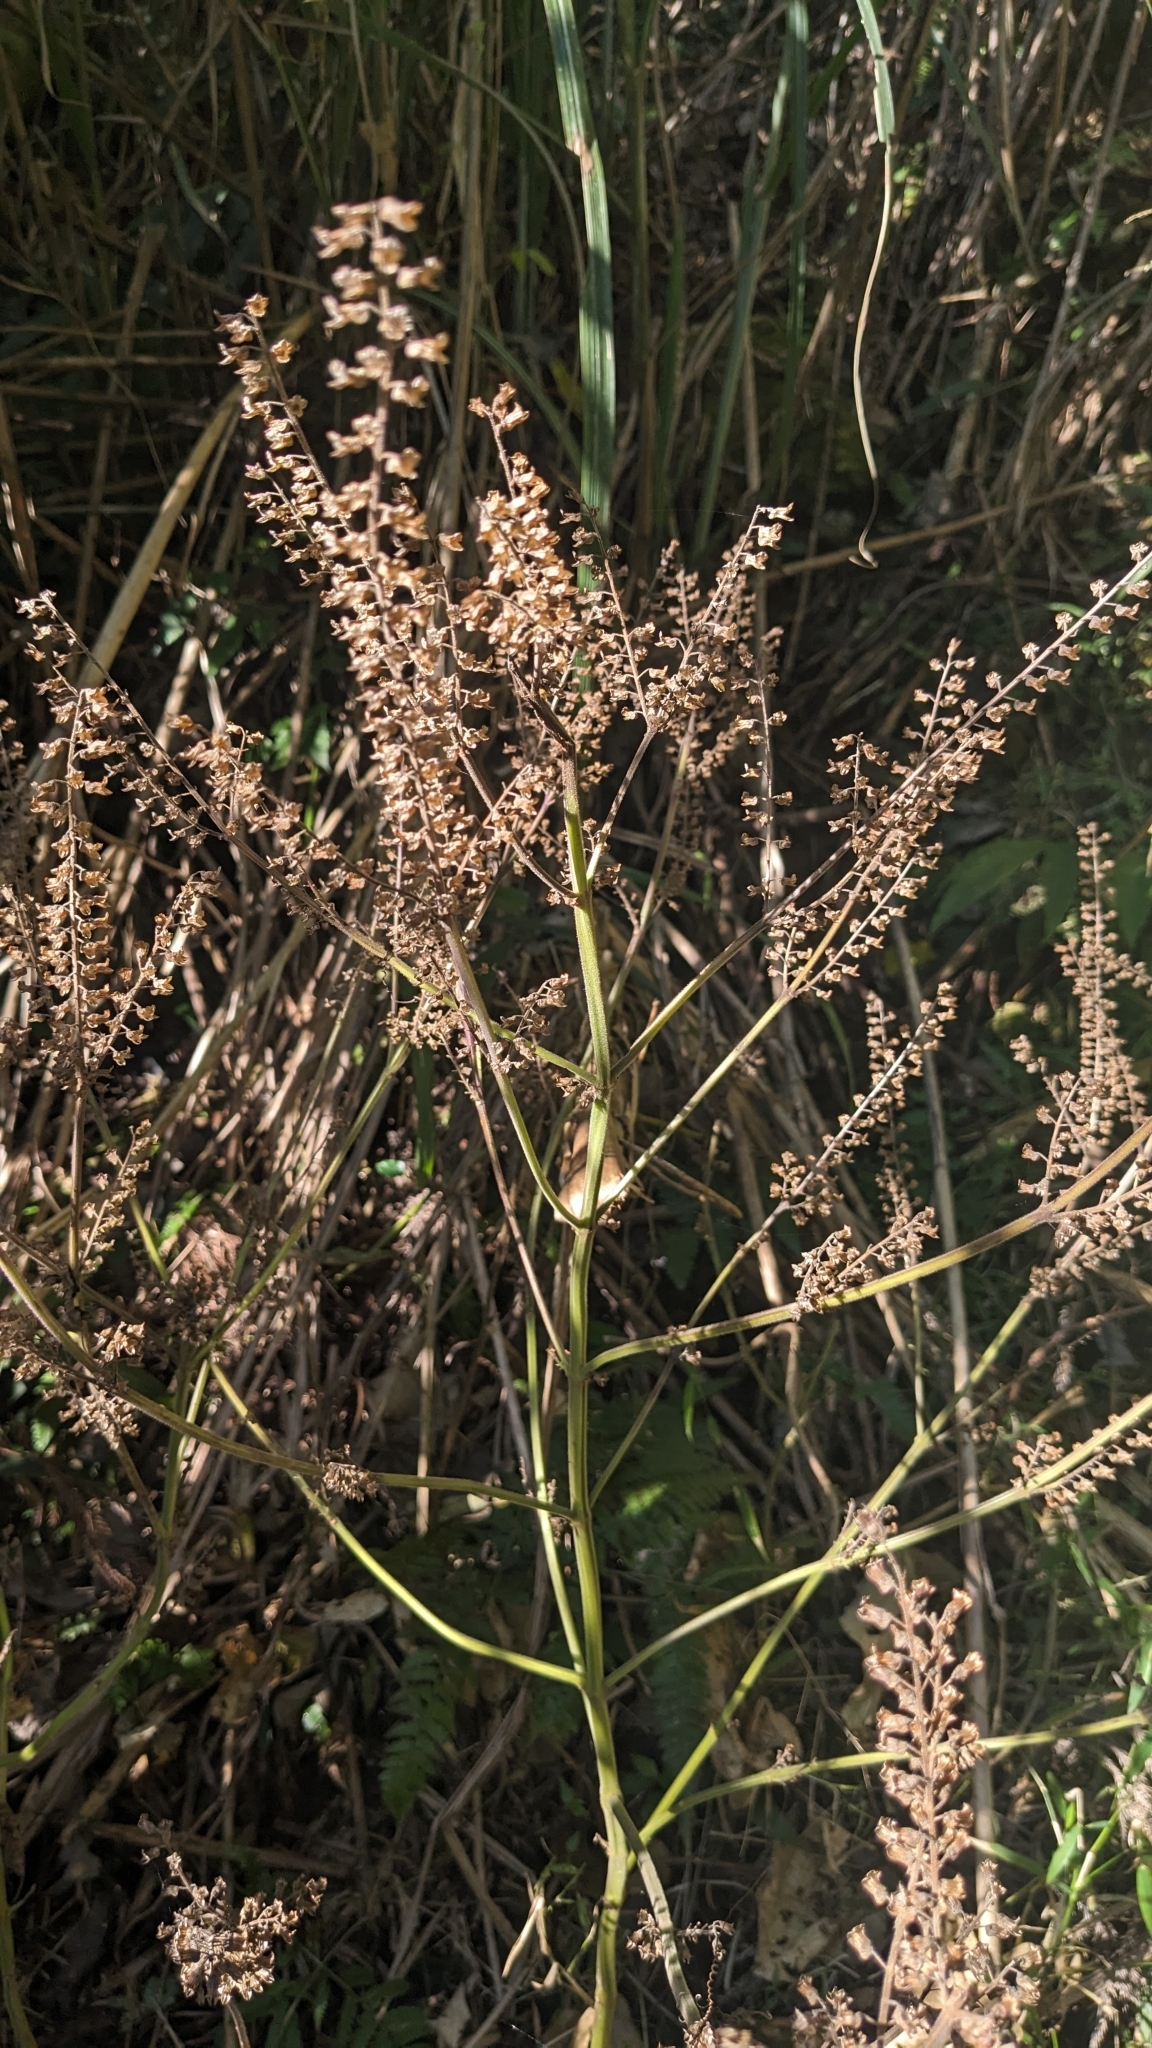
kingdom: Plantae
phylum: Tracheophyta
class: Magnoliopsida
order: Lamiales
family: Lamiaceae
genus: Perilla
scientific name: Perilla frutescens
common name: Perilla
